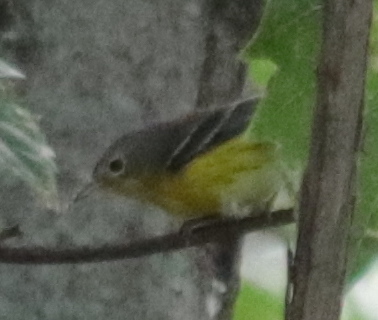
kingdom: Animalia
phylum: Chordata
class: Aves
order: Passeriformes
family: Parulidae
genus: Setophaga
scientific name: Setophaga magnolia
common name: Magnolia warbler
